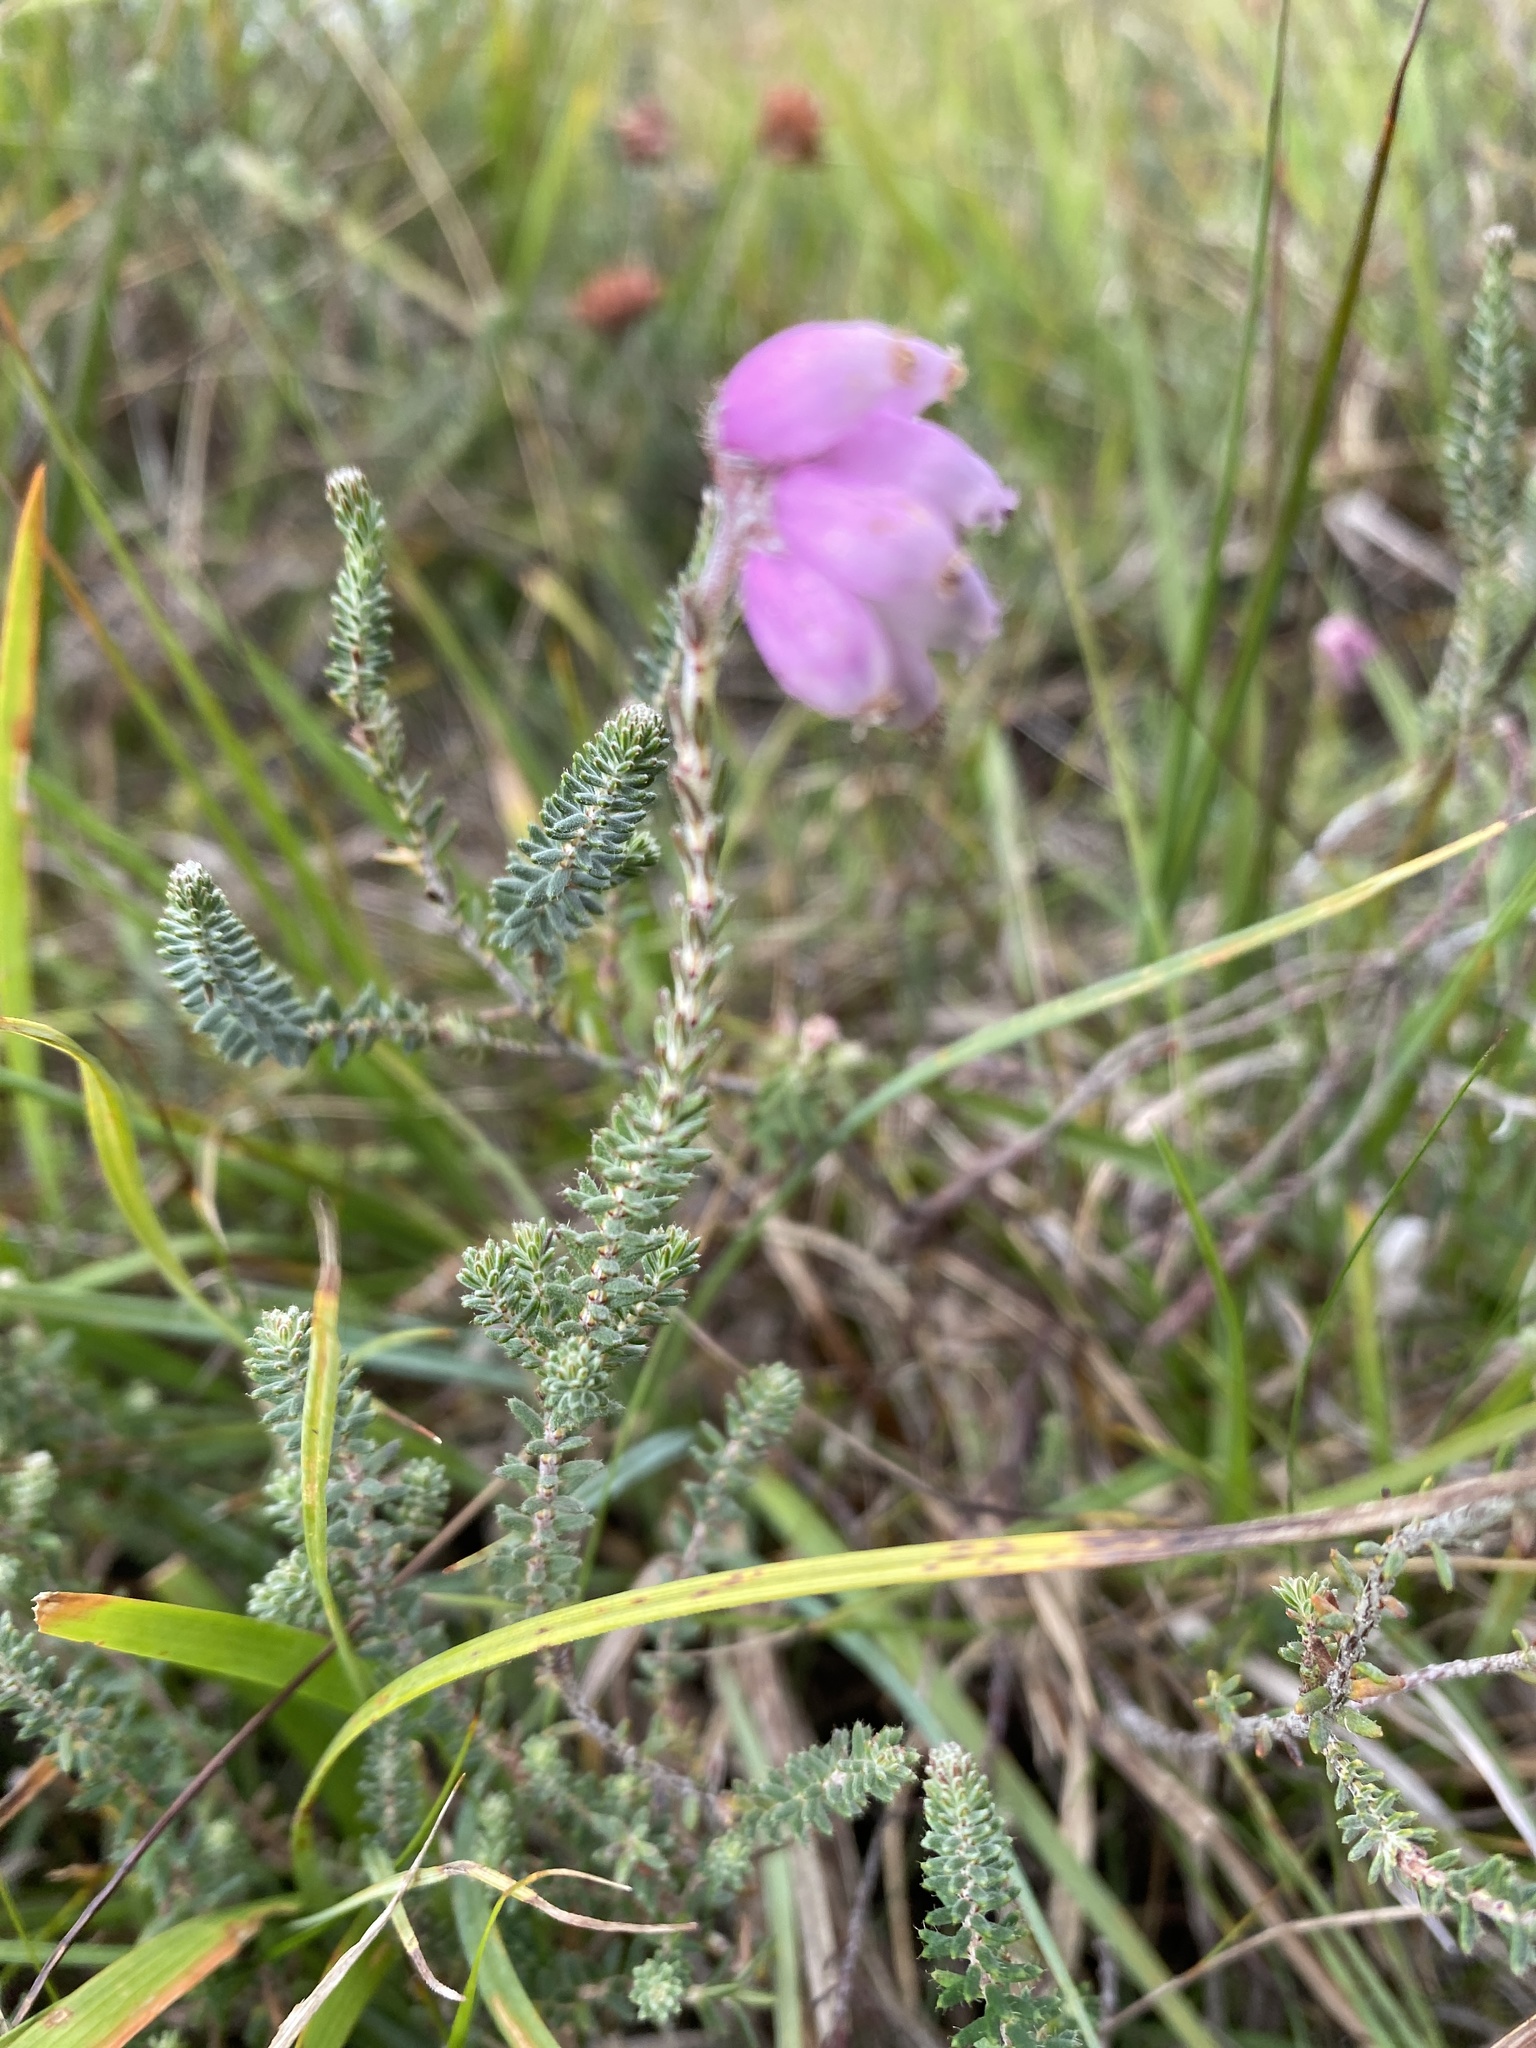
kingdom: Plantae
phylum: Tracheophyta
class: Magnoliopsida
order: Ericales
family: Ericaceae
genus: Erica
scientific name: Erica tetralix
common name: Cross-leaved heath
